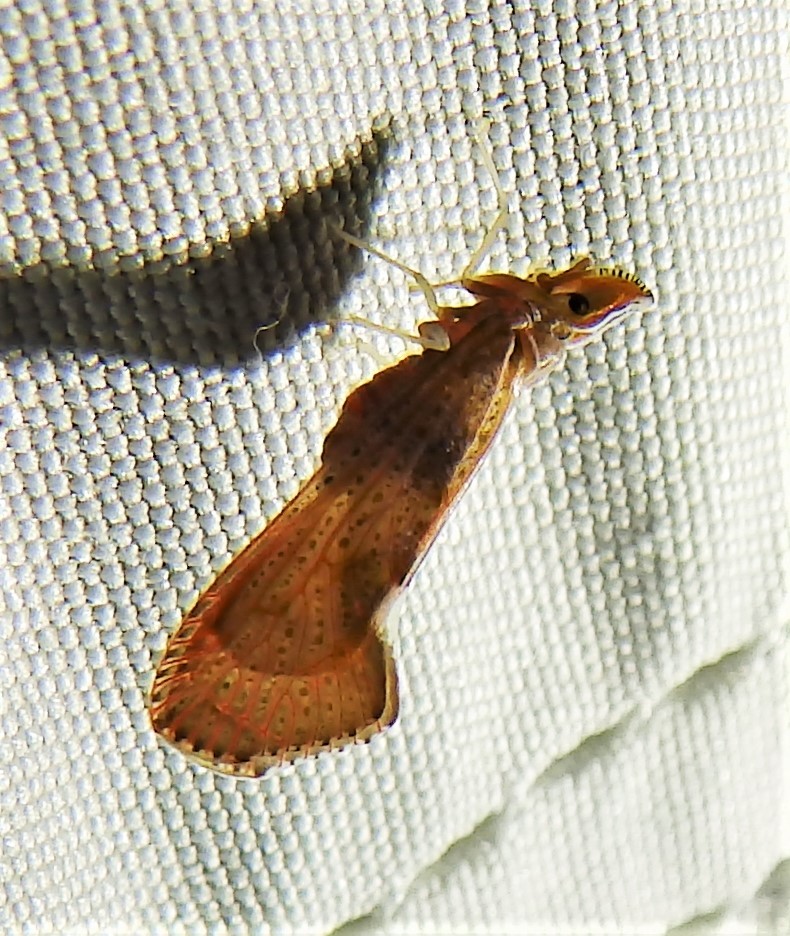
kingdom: Animalia
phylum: Arthropoda
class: Insecta
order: Hemiptera
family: Derbidae
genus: Apache
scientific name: Apache degeeri
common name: Red-fanned planthopper
